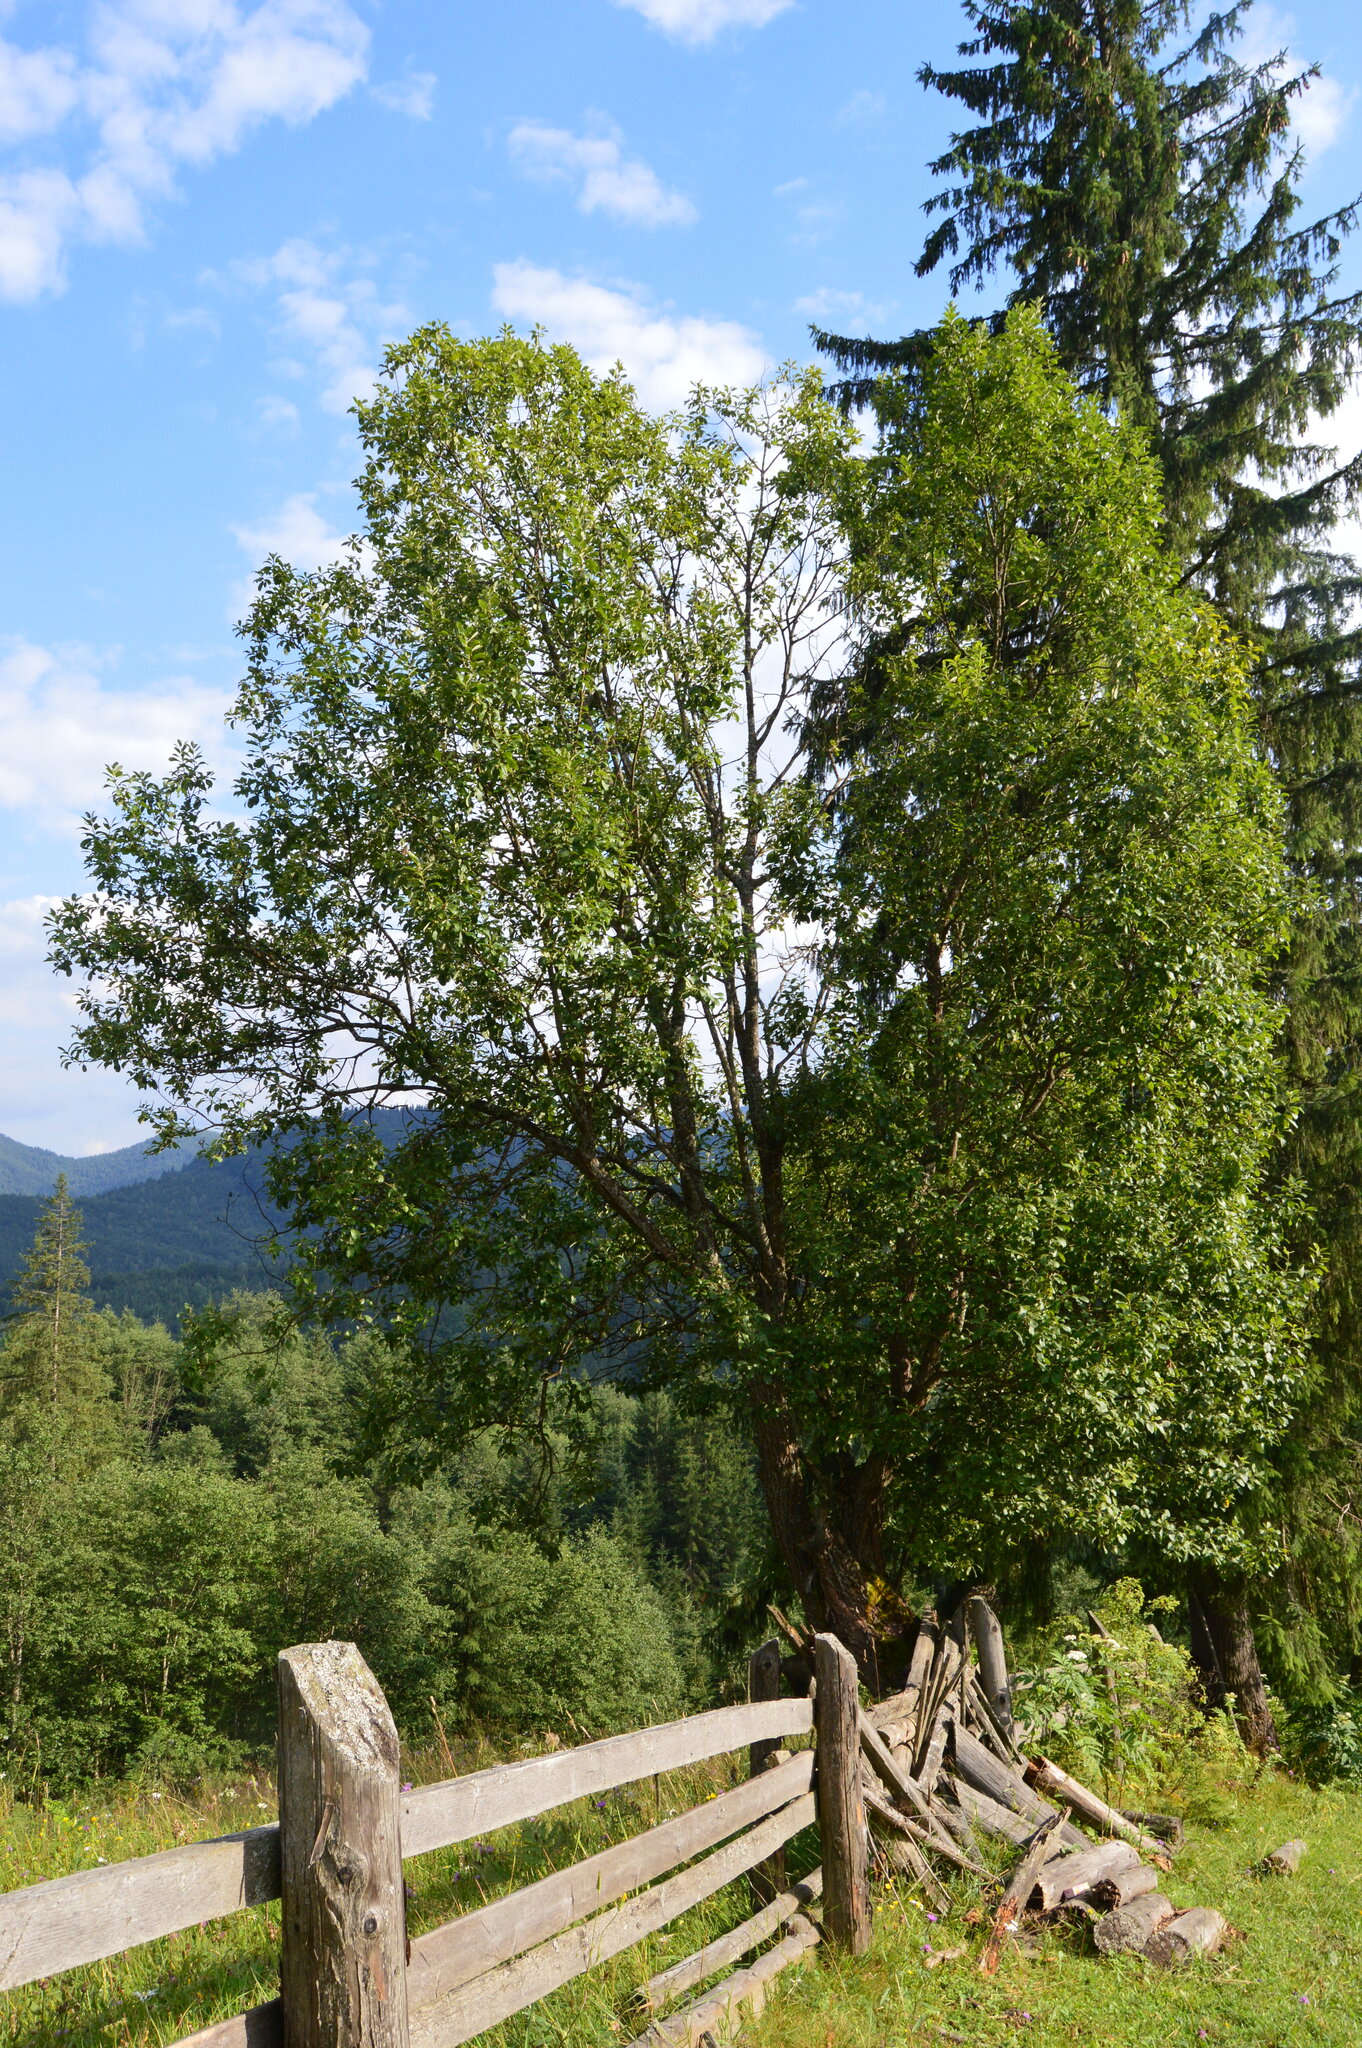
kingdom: Plantae
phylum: Tracheophyta
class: Magnoliopsida
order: Malpighiales
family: Salicaceae
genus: Salix
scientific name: Salix caprea
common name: Goat willow
